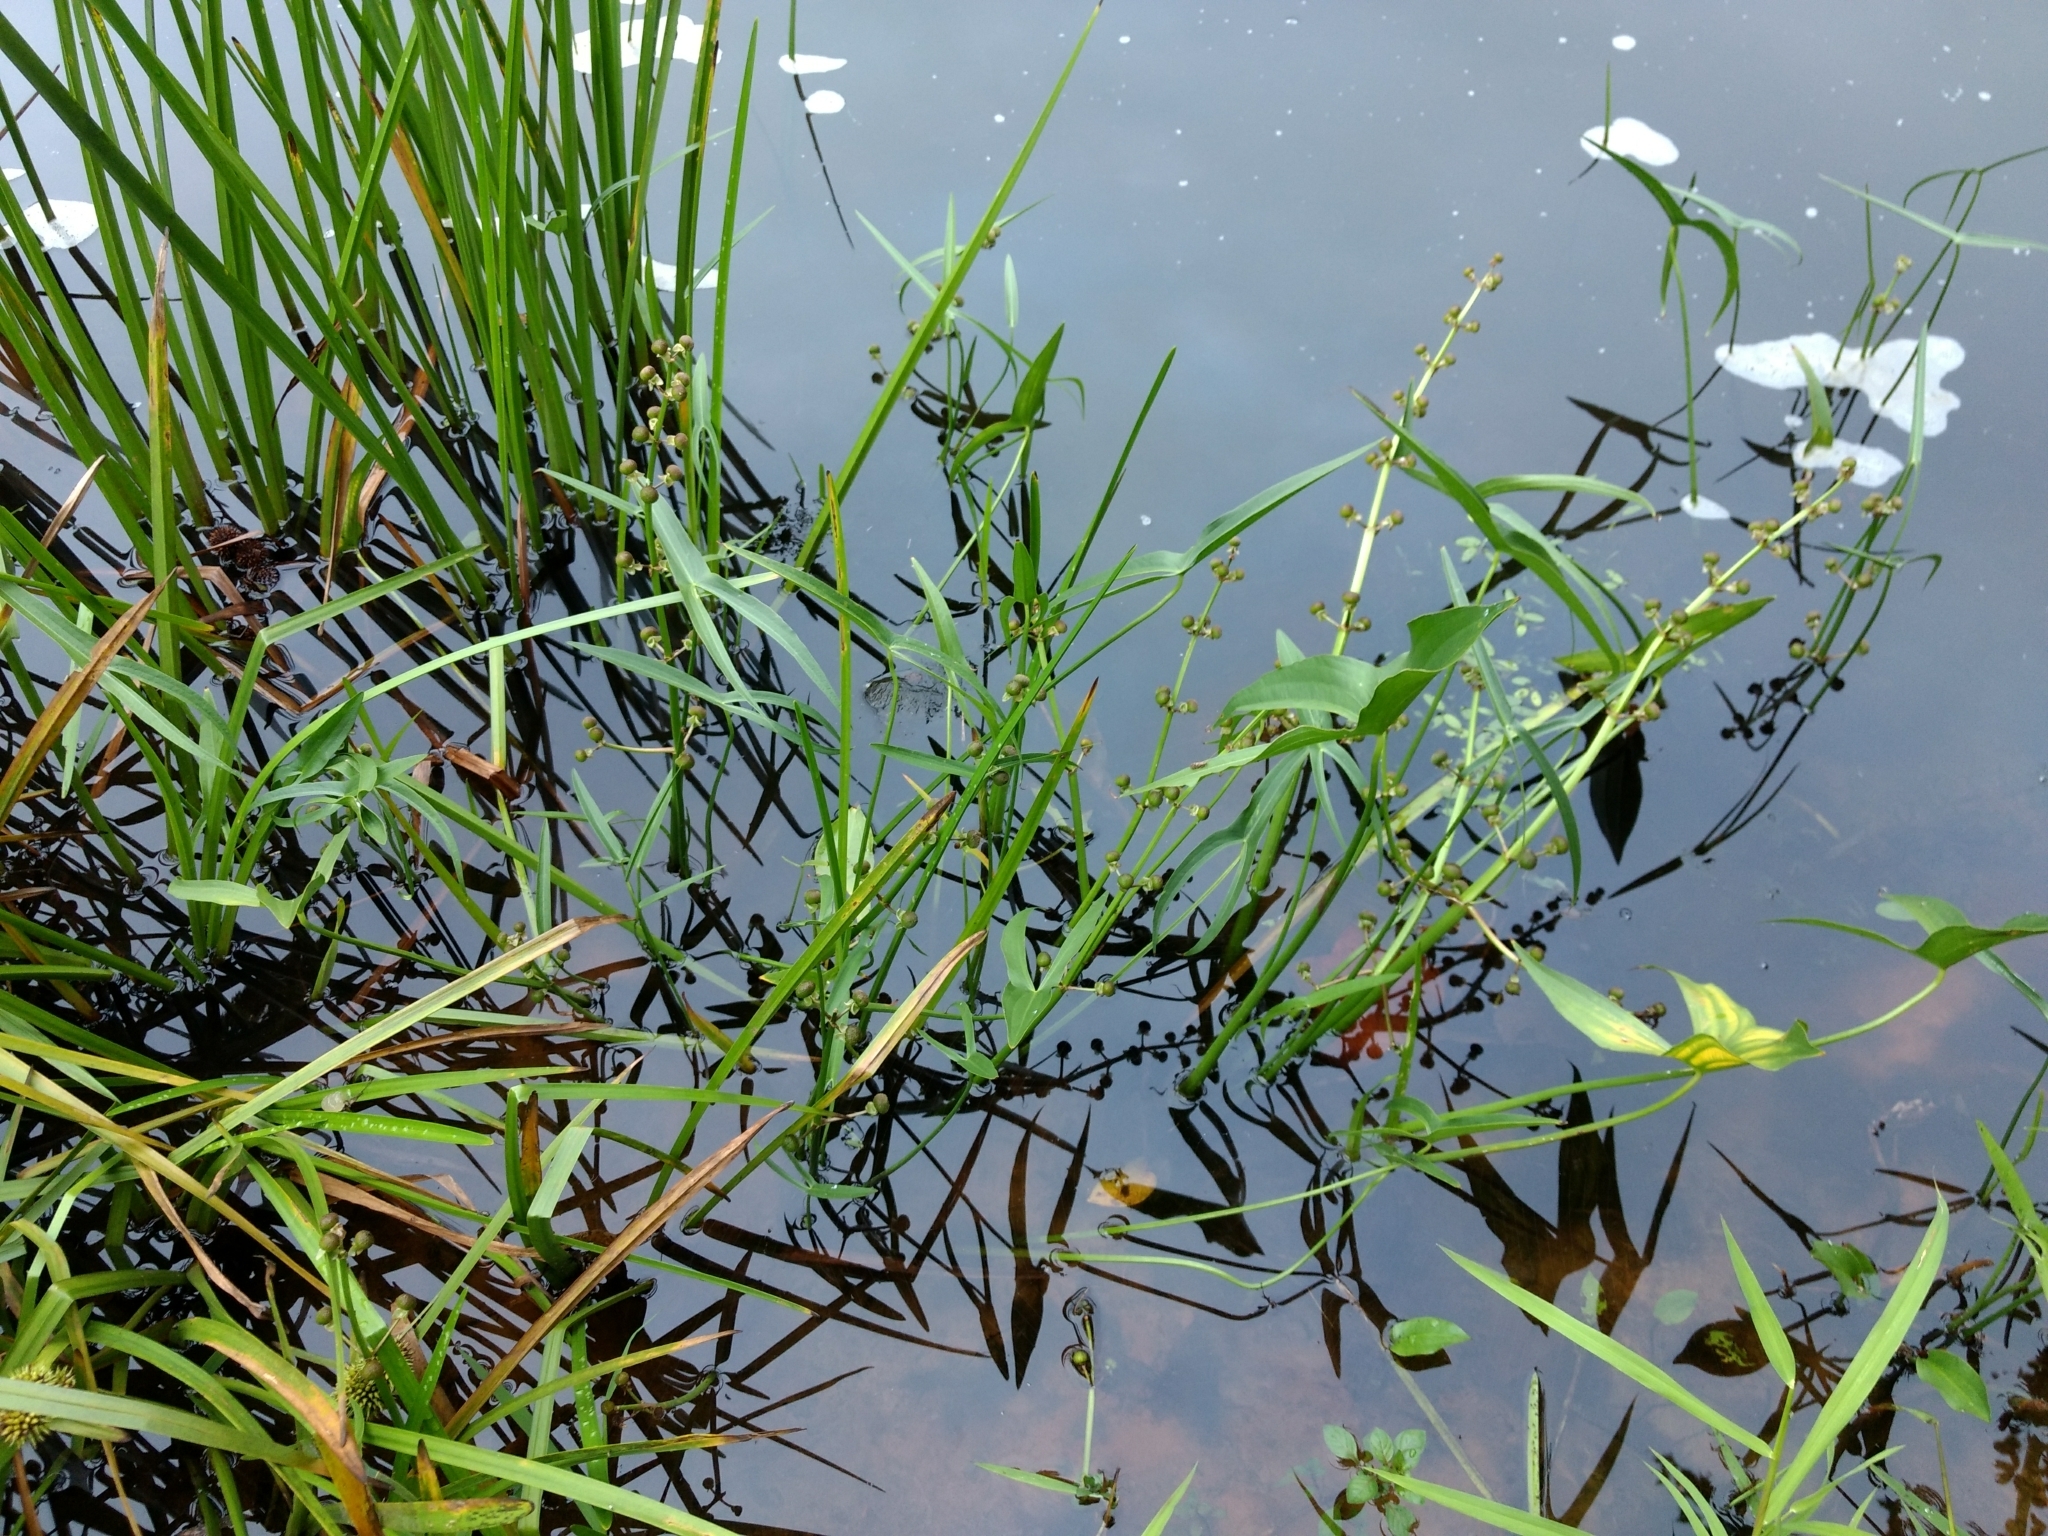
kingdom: Plantae
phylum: Tracheophyta
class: Liliopsida
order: Alismatales
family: Alismataceae
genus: Sagittaria
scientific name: Sagittaria latifolia
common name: Duck-potato
